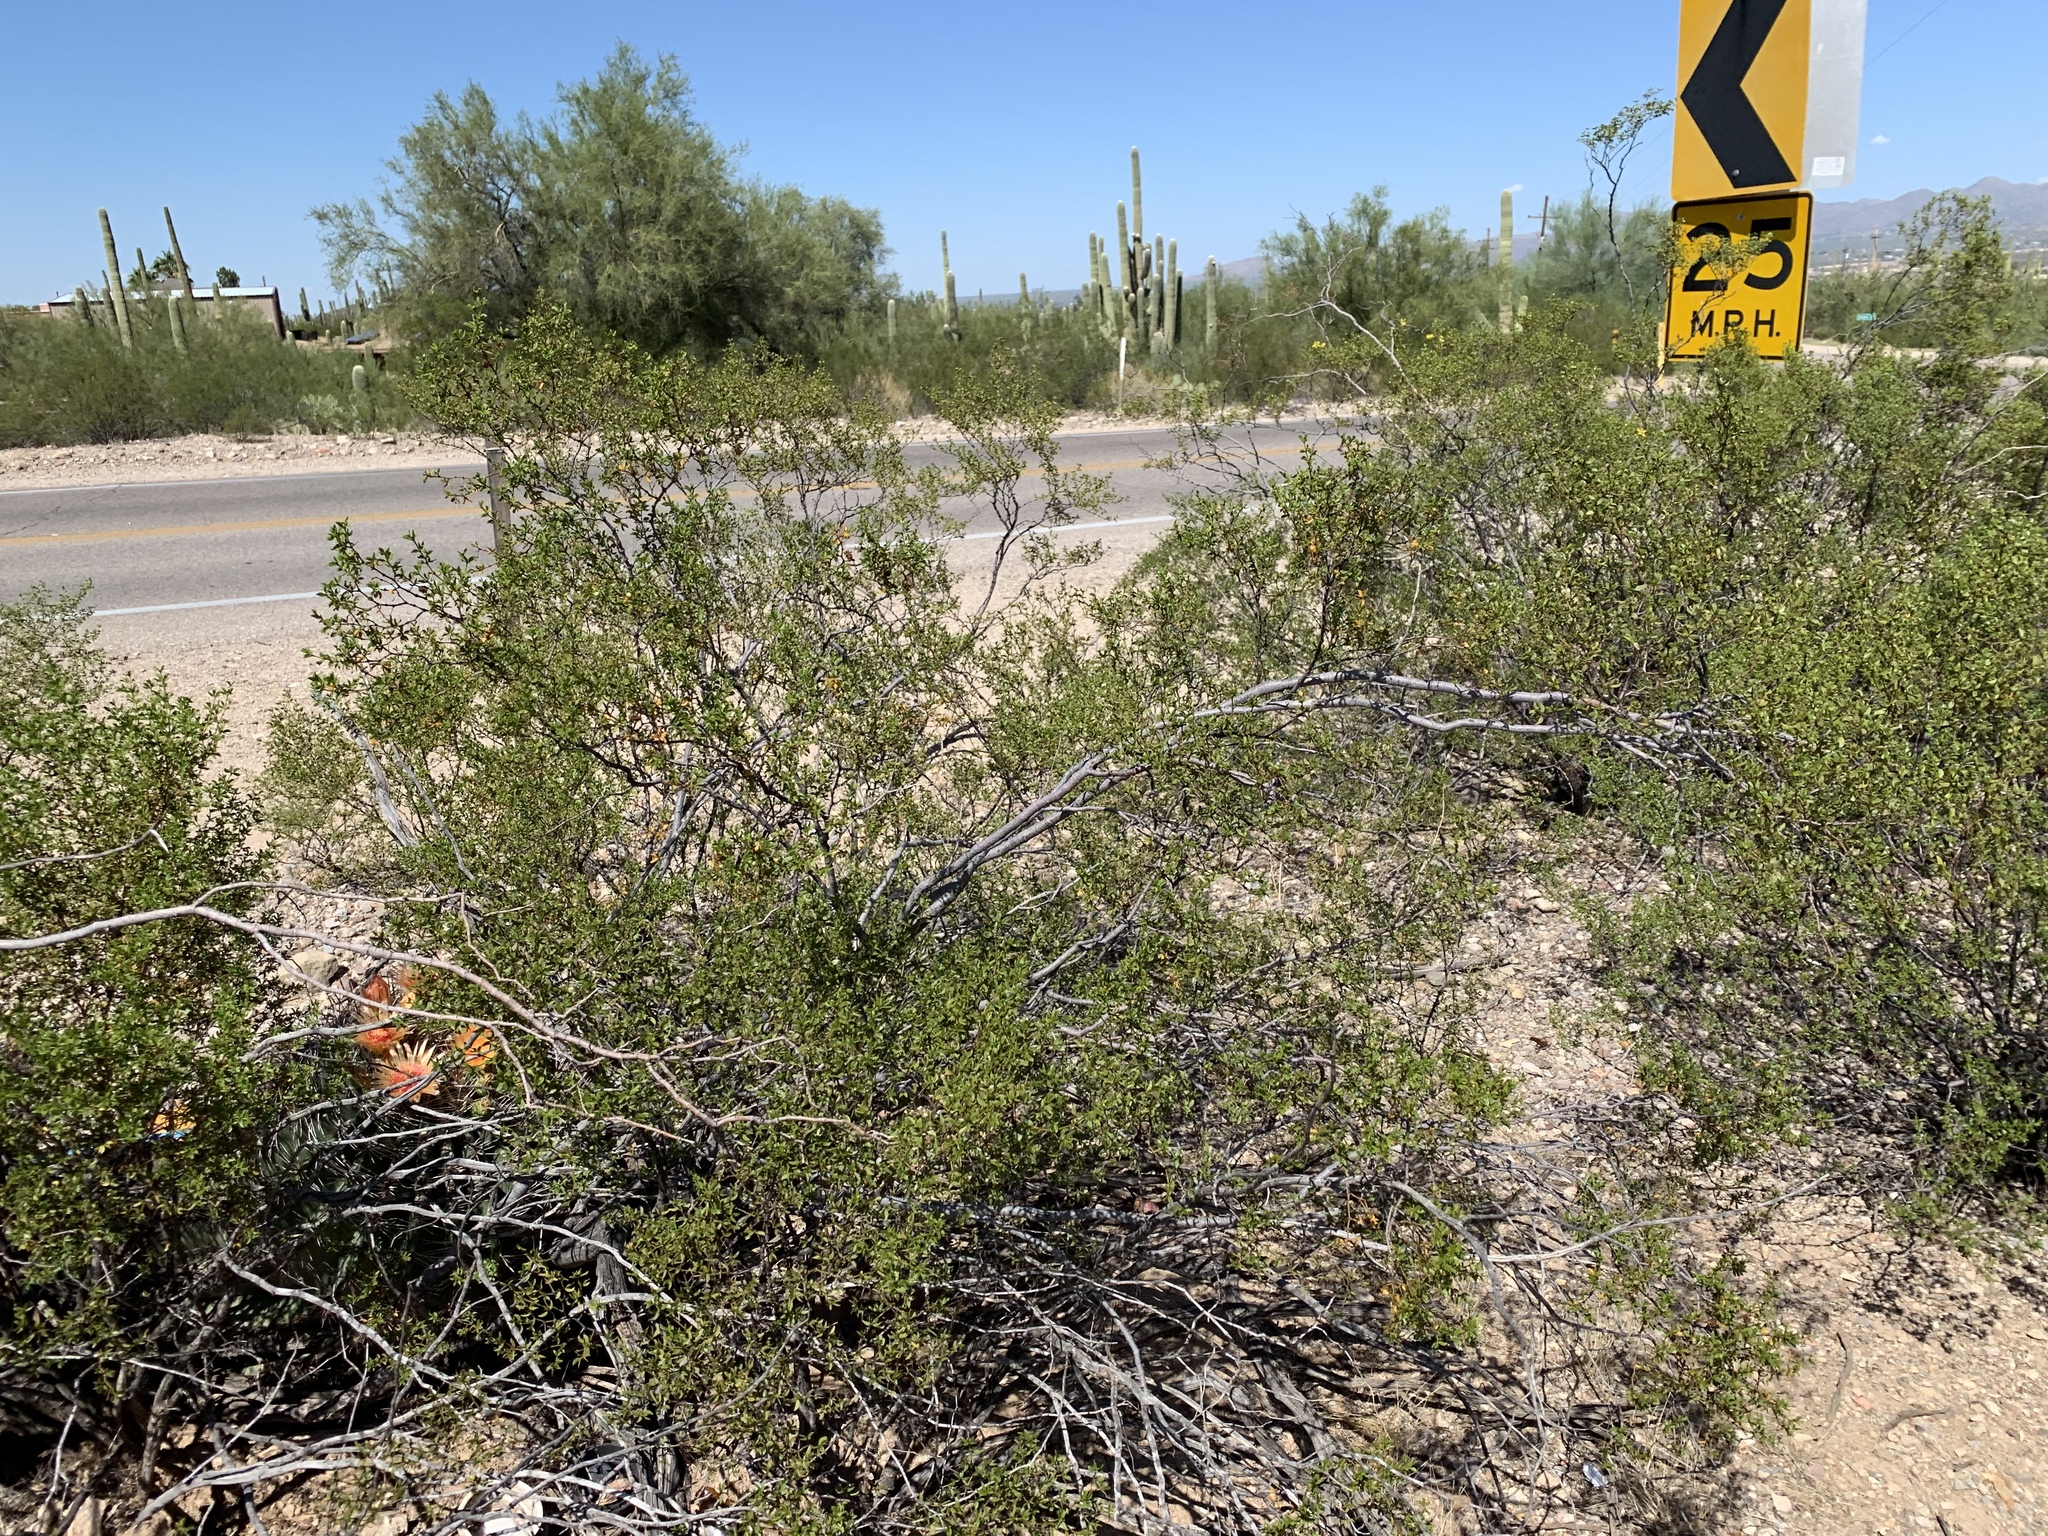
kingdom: Plantae
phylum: Tracheophyta
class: Magnoliopsida
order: Zygophyllales
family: Zygophyllaceae
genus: Larrea
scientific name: Larrea tridentata
